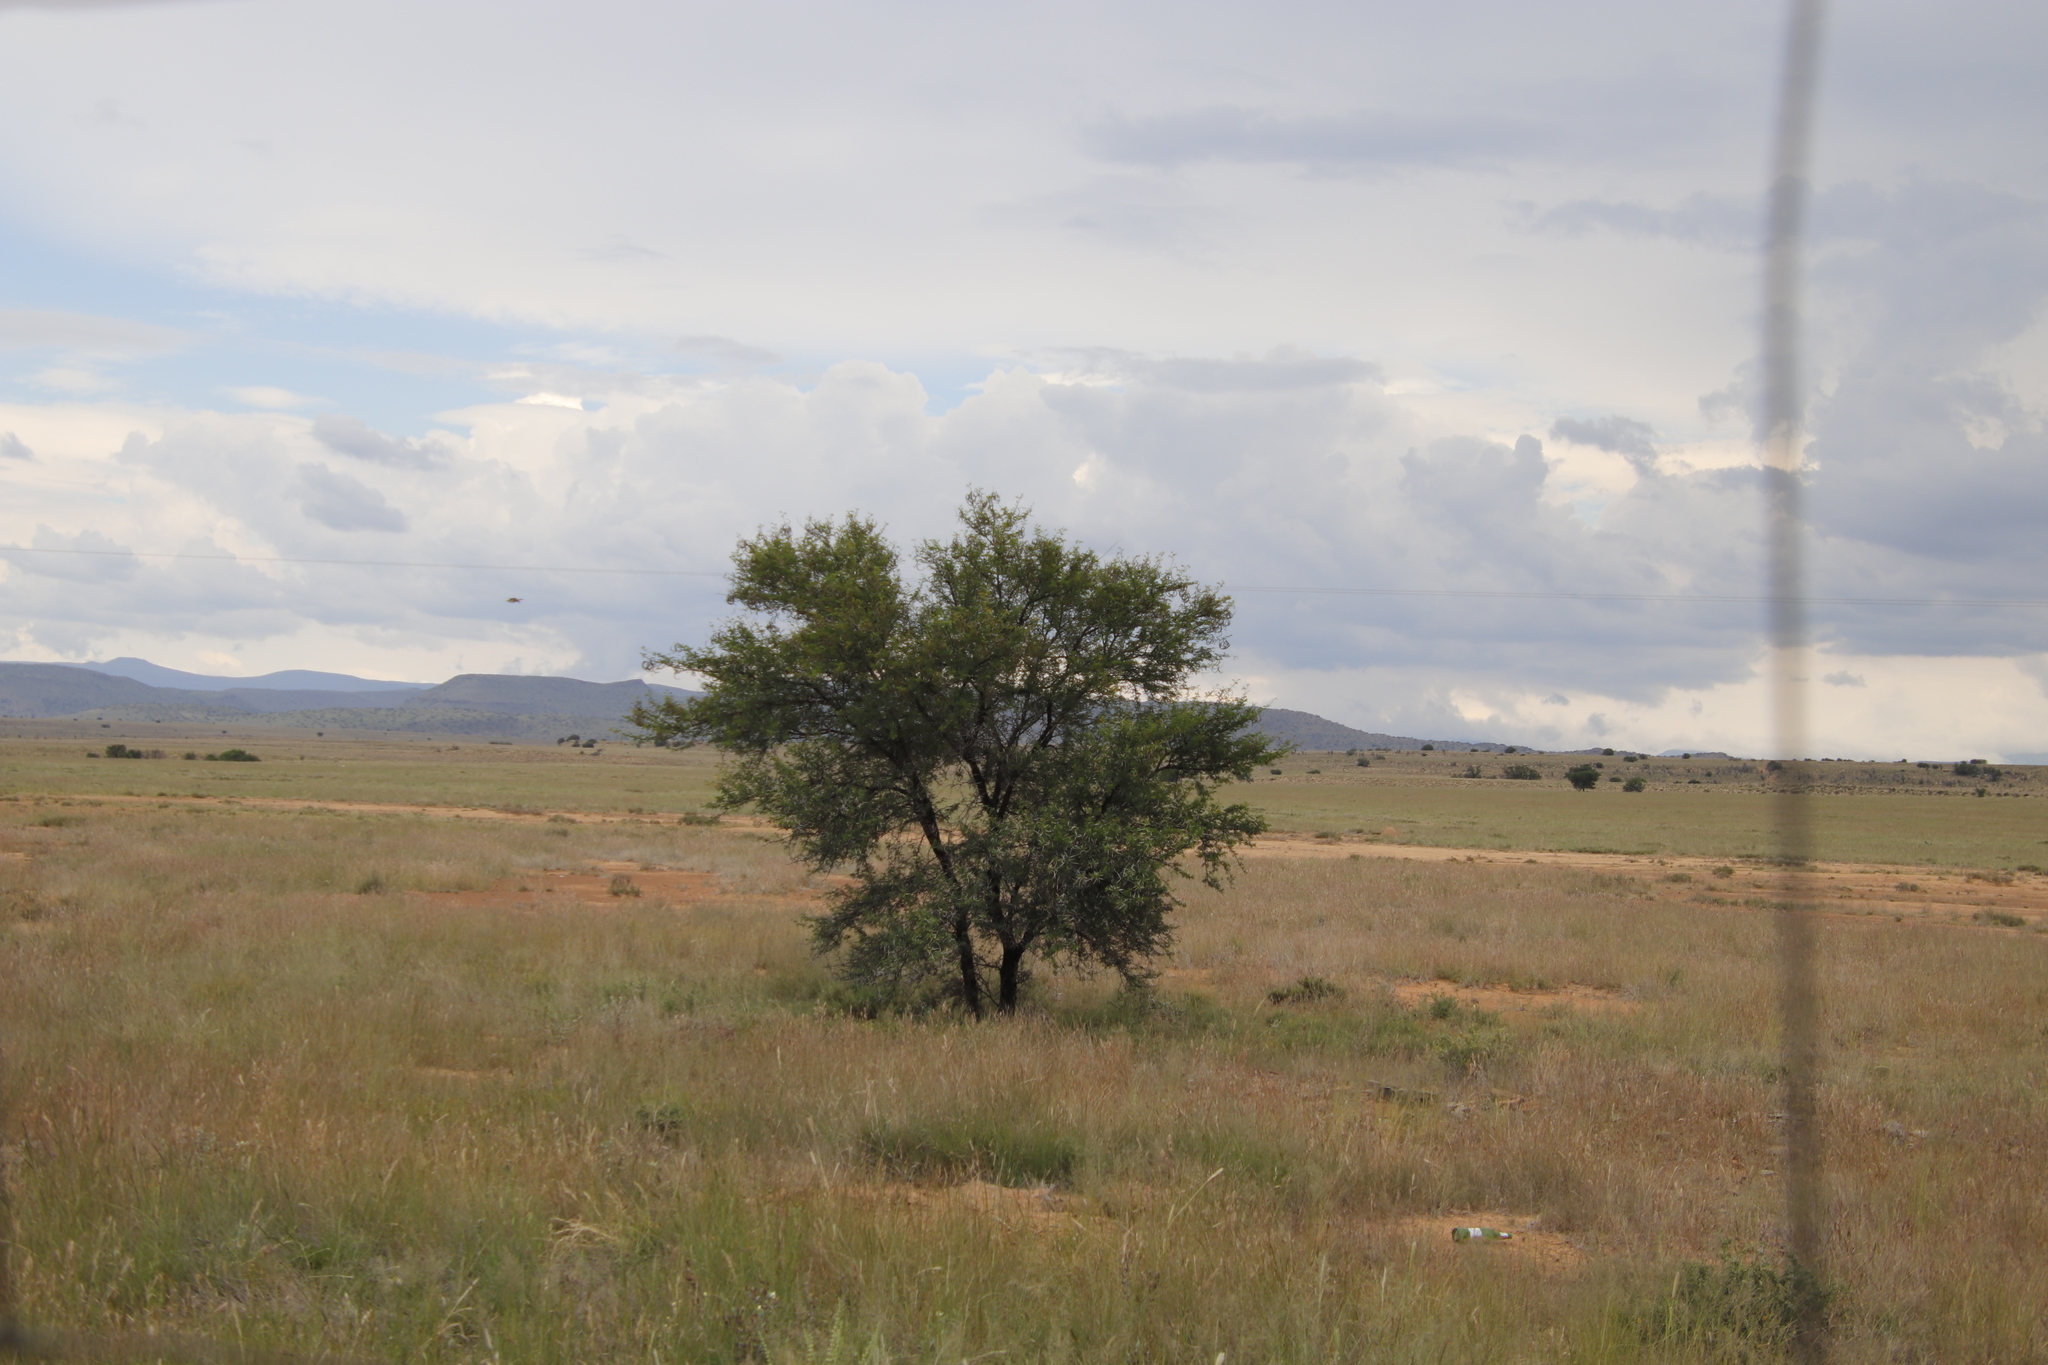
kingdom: Plantae
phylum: Tracheophyta
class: Magnoliopsida
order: Fabales
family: Fabaceae
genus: Vachellia
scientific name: Vachellia karroo
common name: Sweet thorn
